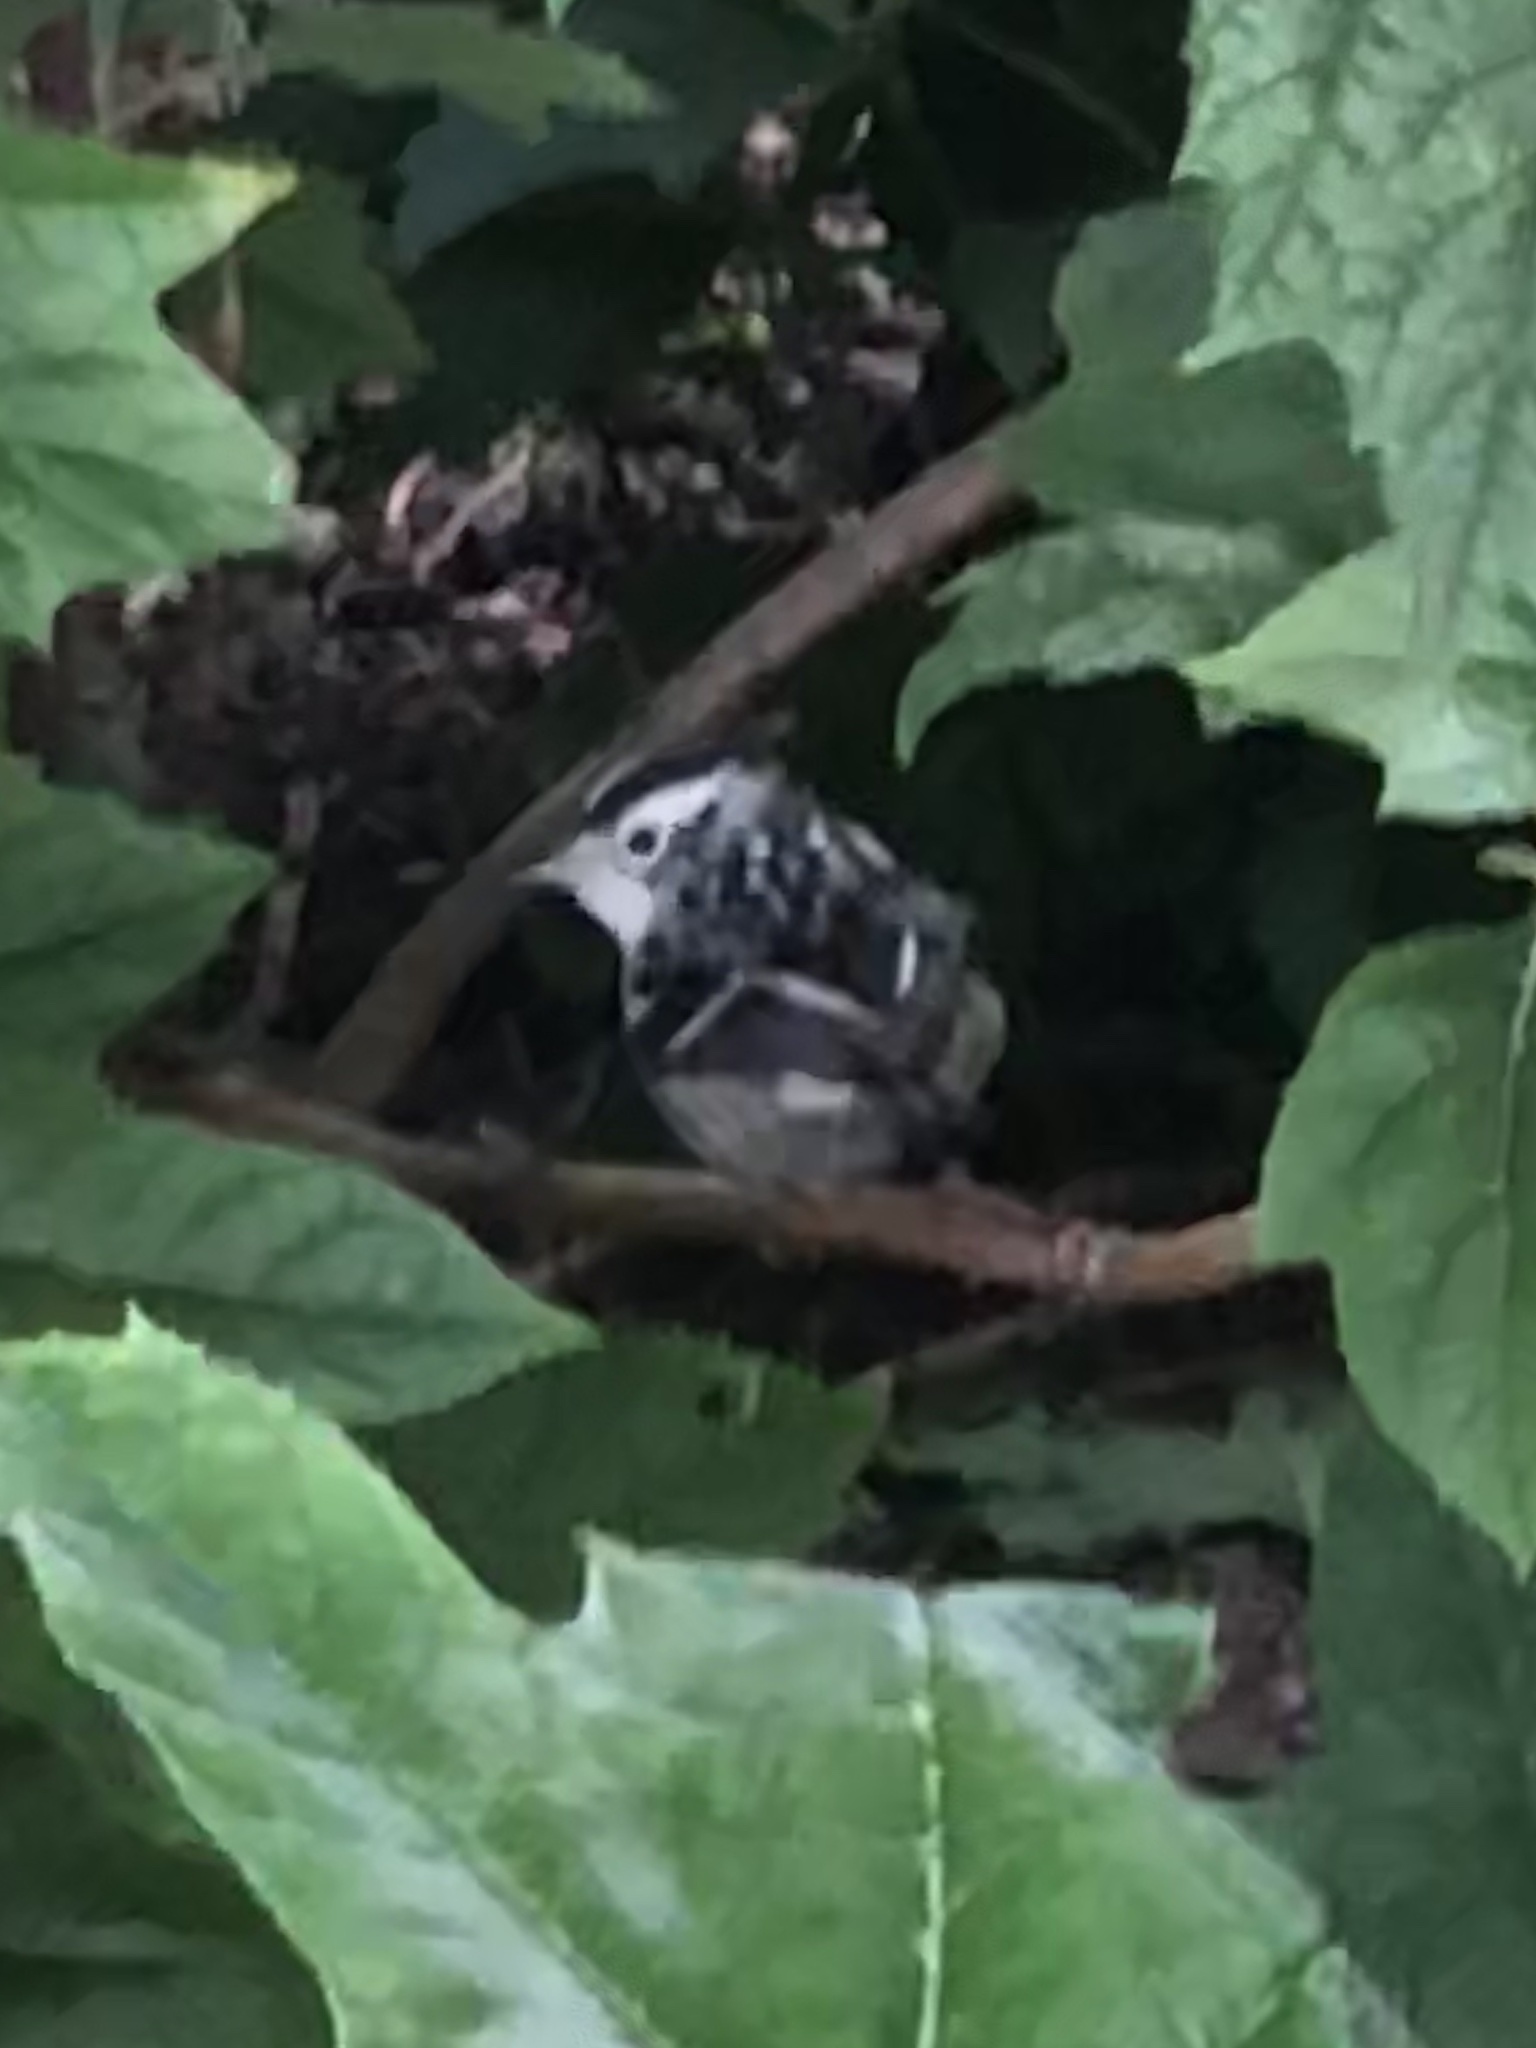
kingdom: Animalia
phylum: Chordata
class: Aves
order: Passeriformes
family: Parulidae
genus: Mniotilta
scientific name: Mniotilta varia
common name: Black-and-white warbler
